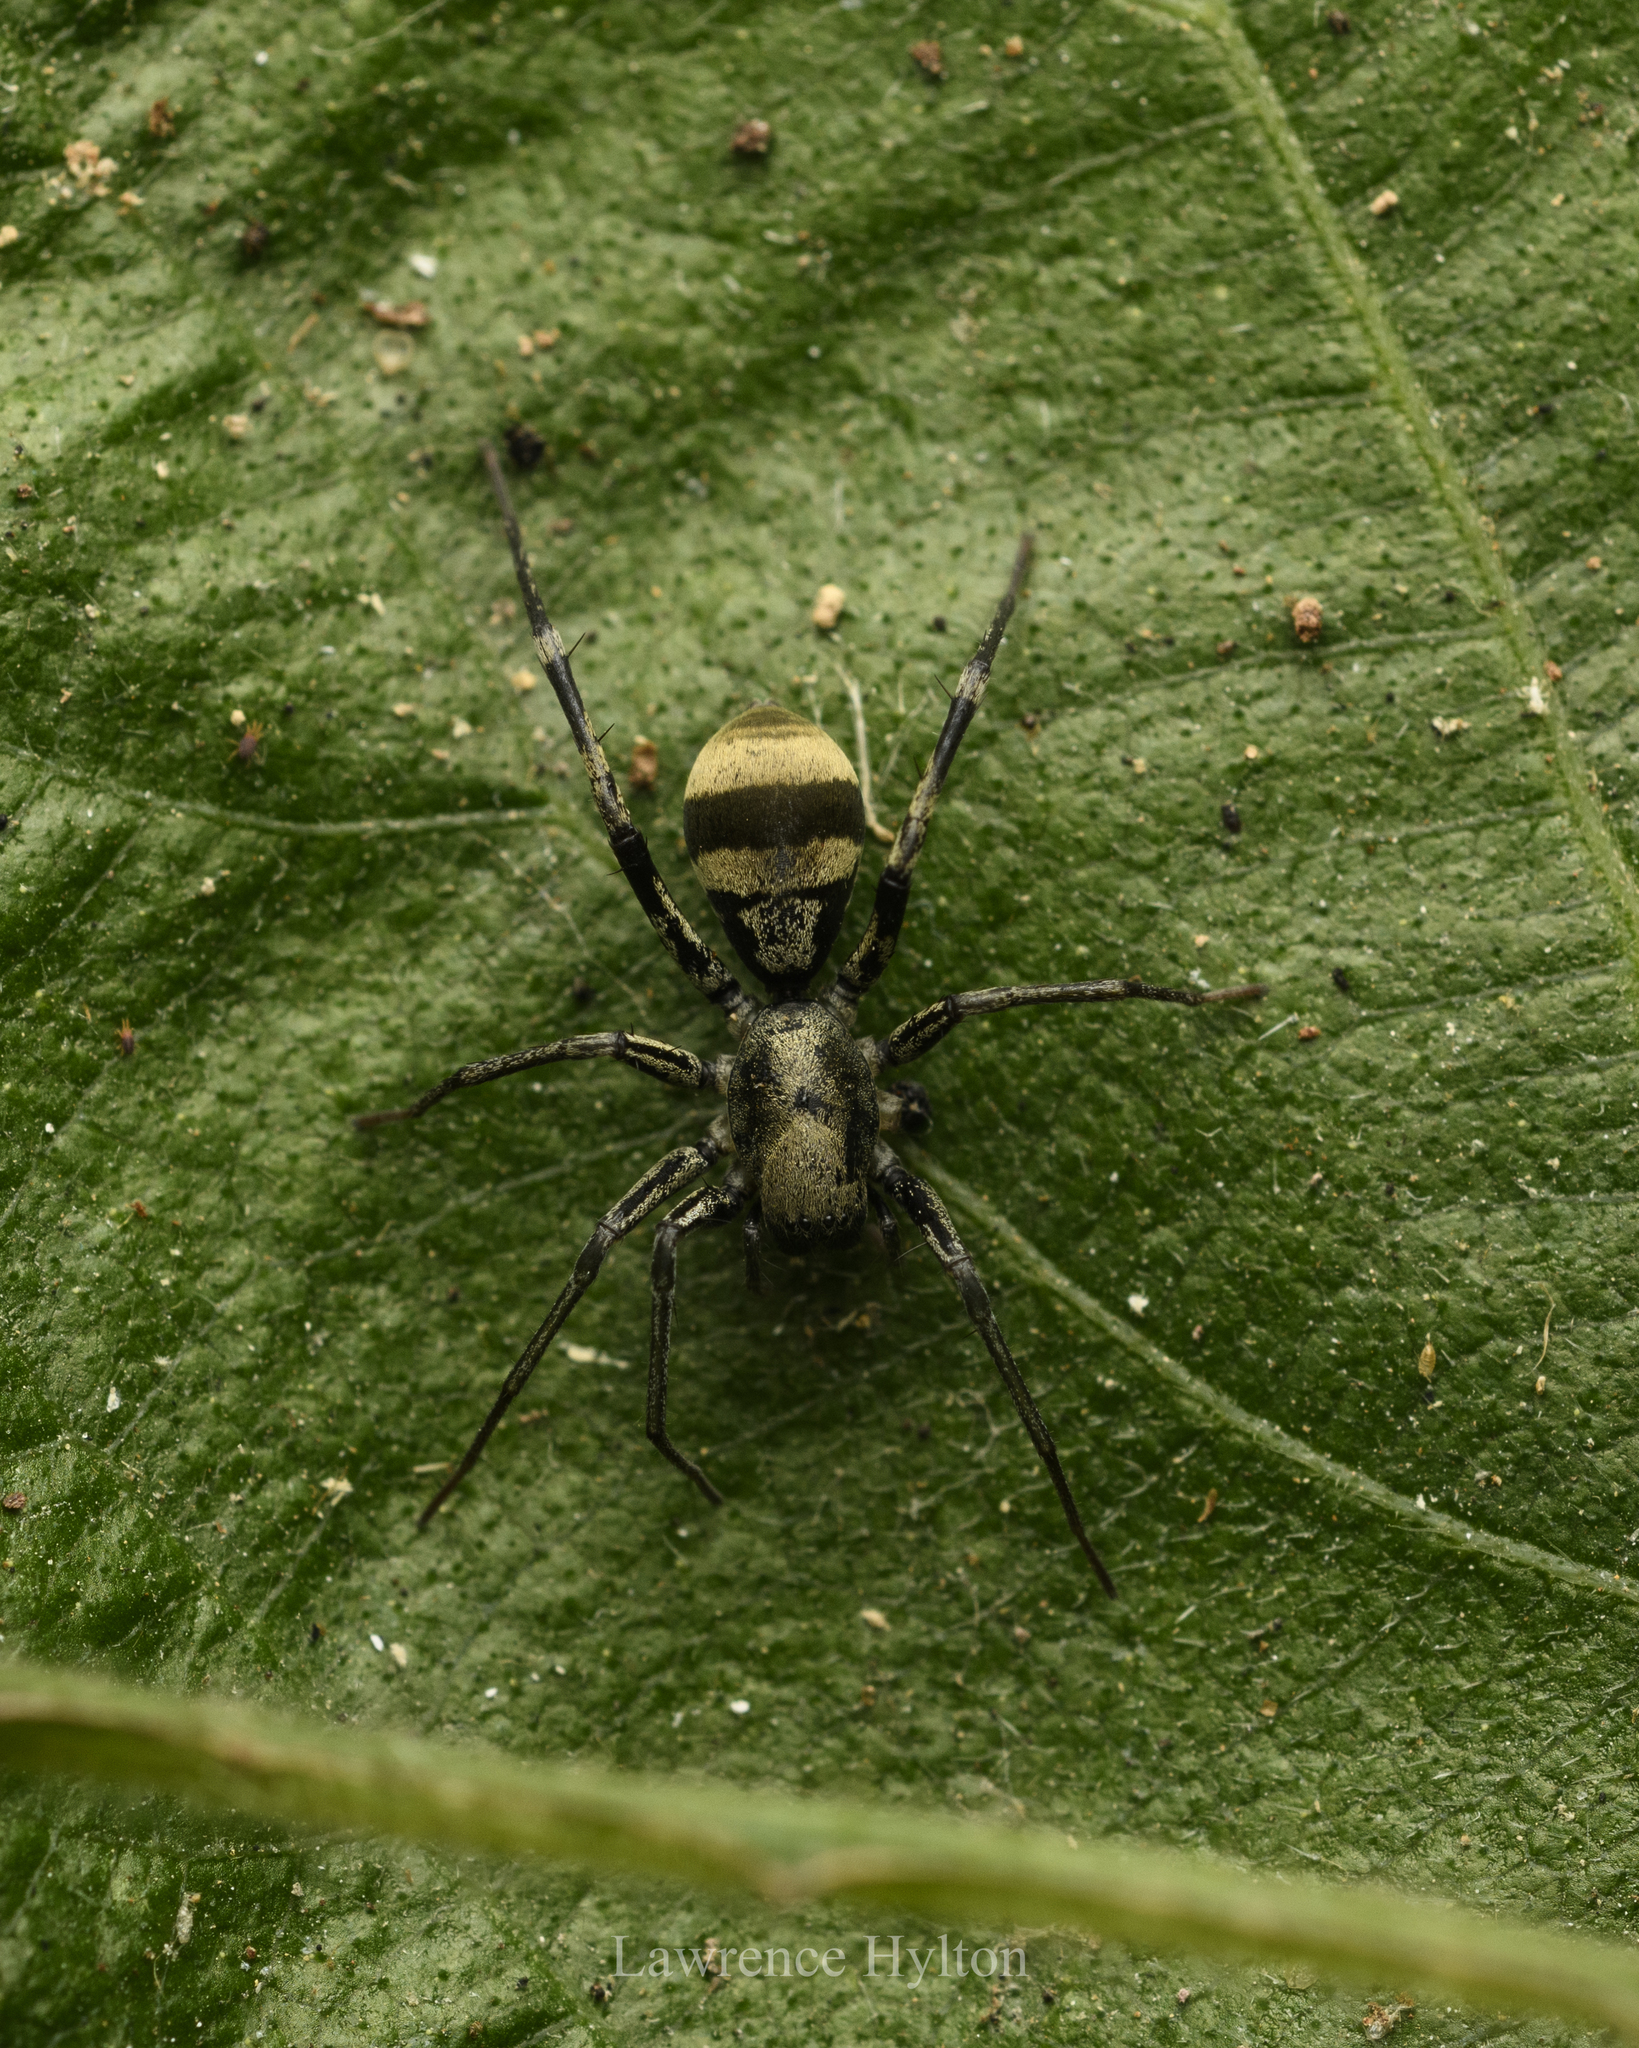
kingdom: Animalia
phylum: Arthropoda
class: Arachnida
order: Araneae
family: Corinnidae
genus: Corinnomma
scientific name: Corinnomma severum
